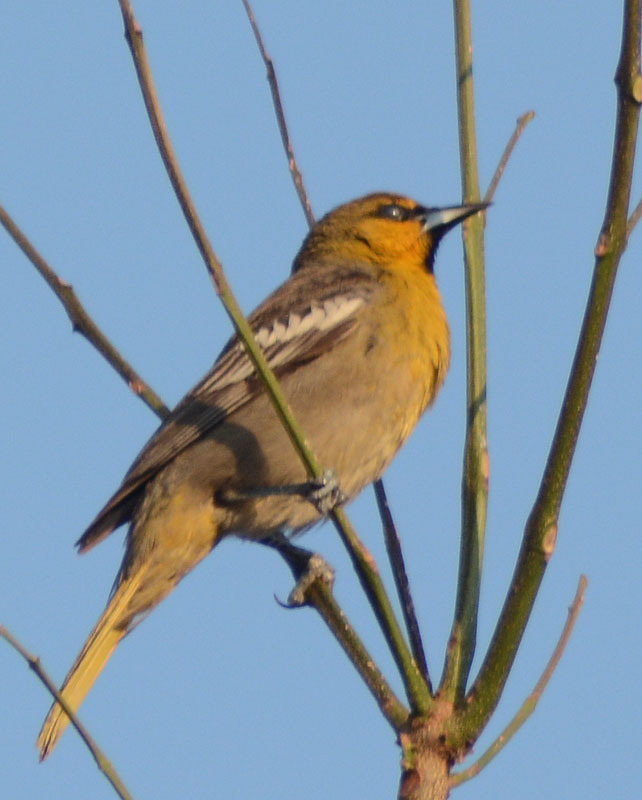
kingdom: Animalia
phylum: Chordata
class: Aves
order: Passeriformes
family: Icteridae
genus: Icterus
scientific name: Icterus bullockii
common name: Bullock's oriole
